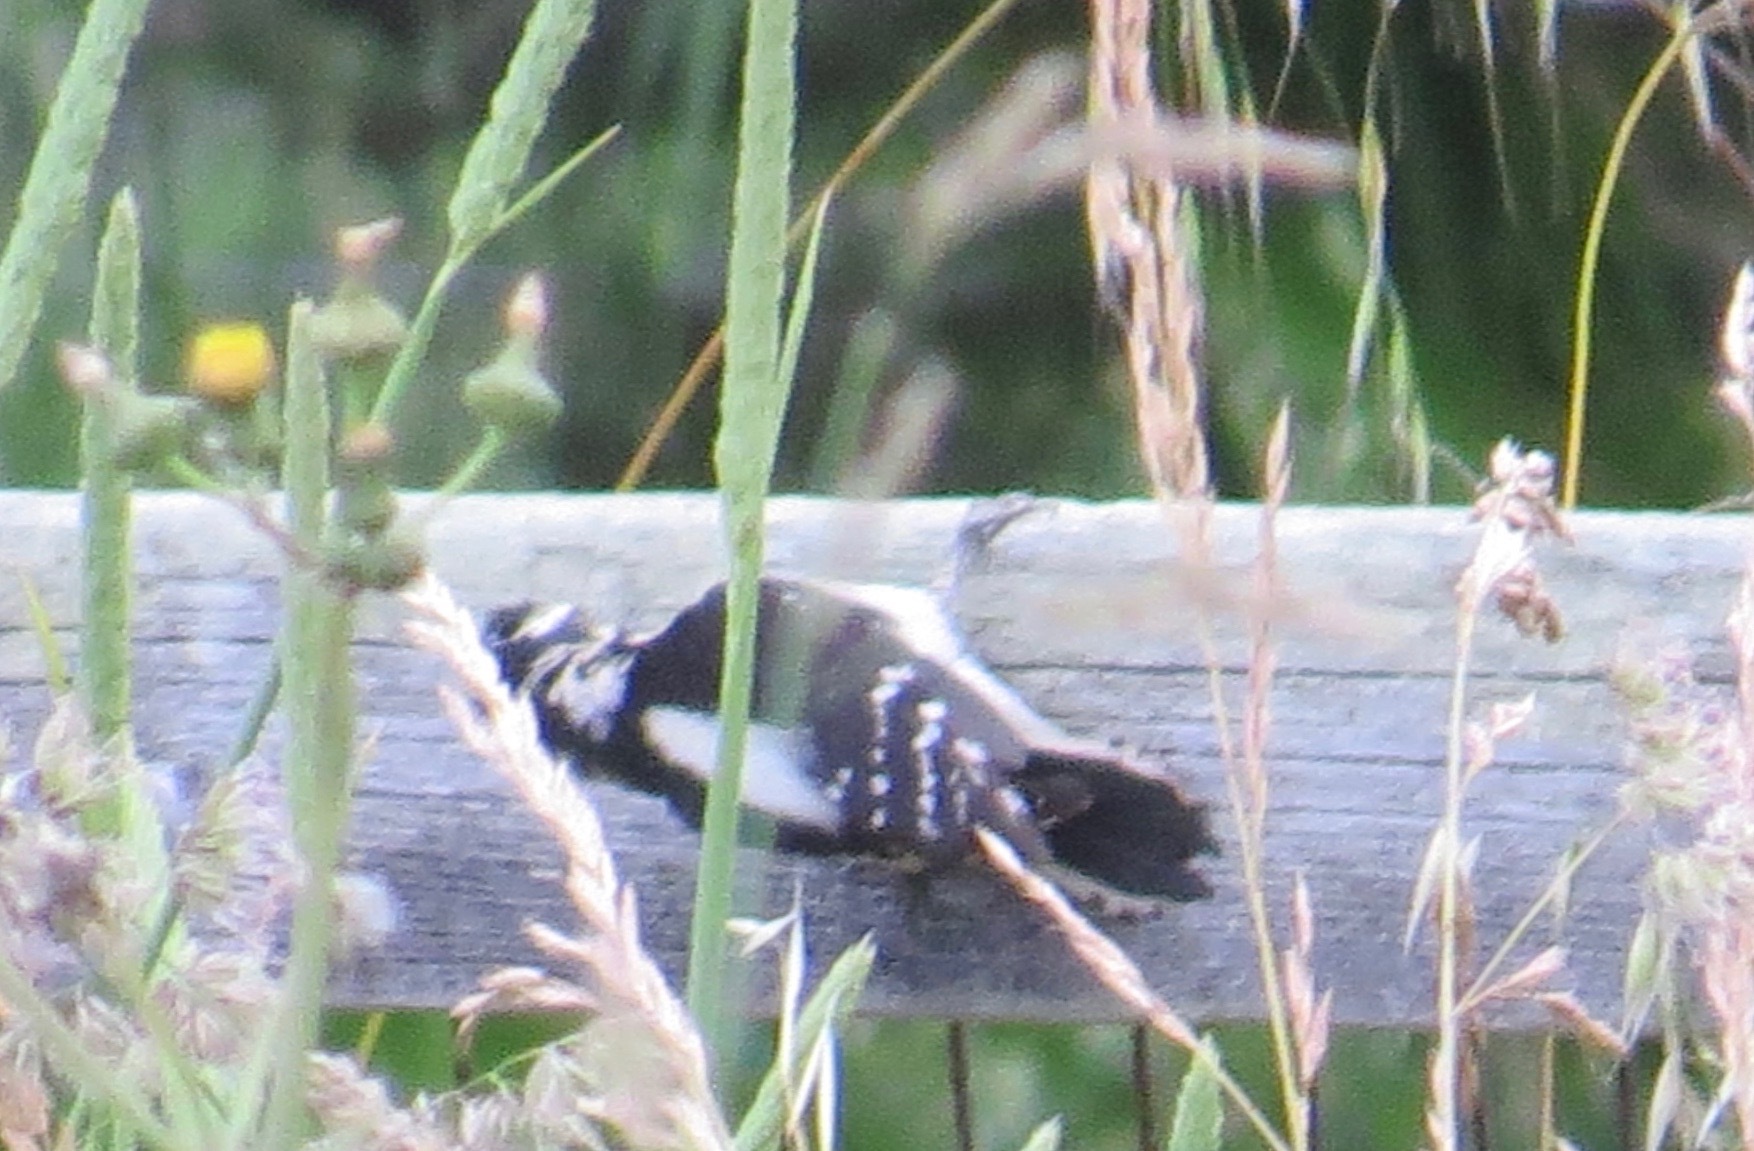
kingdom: Animalia
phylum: Chordata
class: Aves
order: Piciformes
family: Picidae
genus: Dryobates
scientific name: Dryobates pubescens
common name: Downy woodpecker
